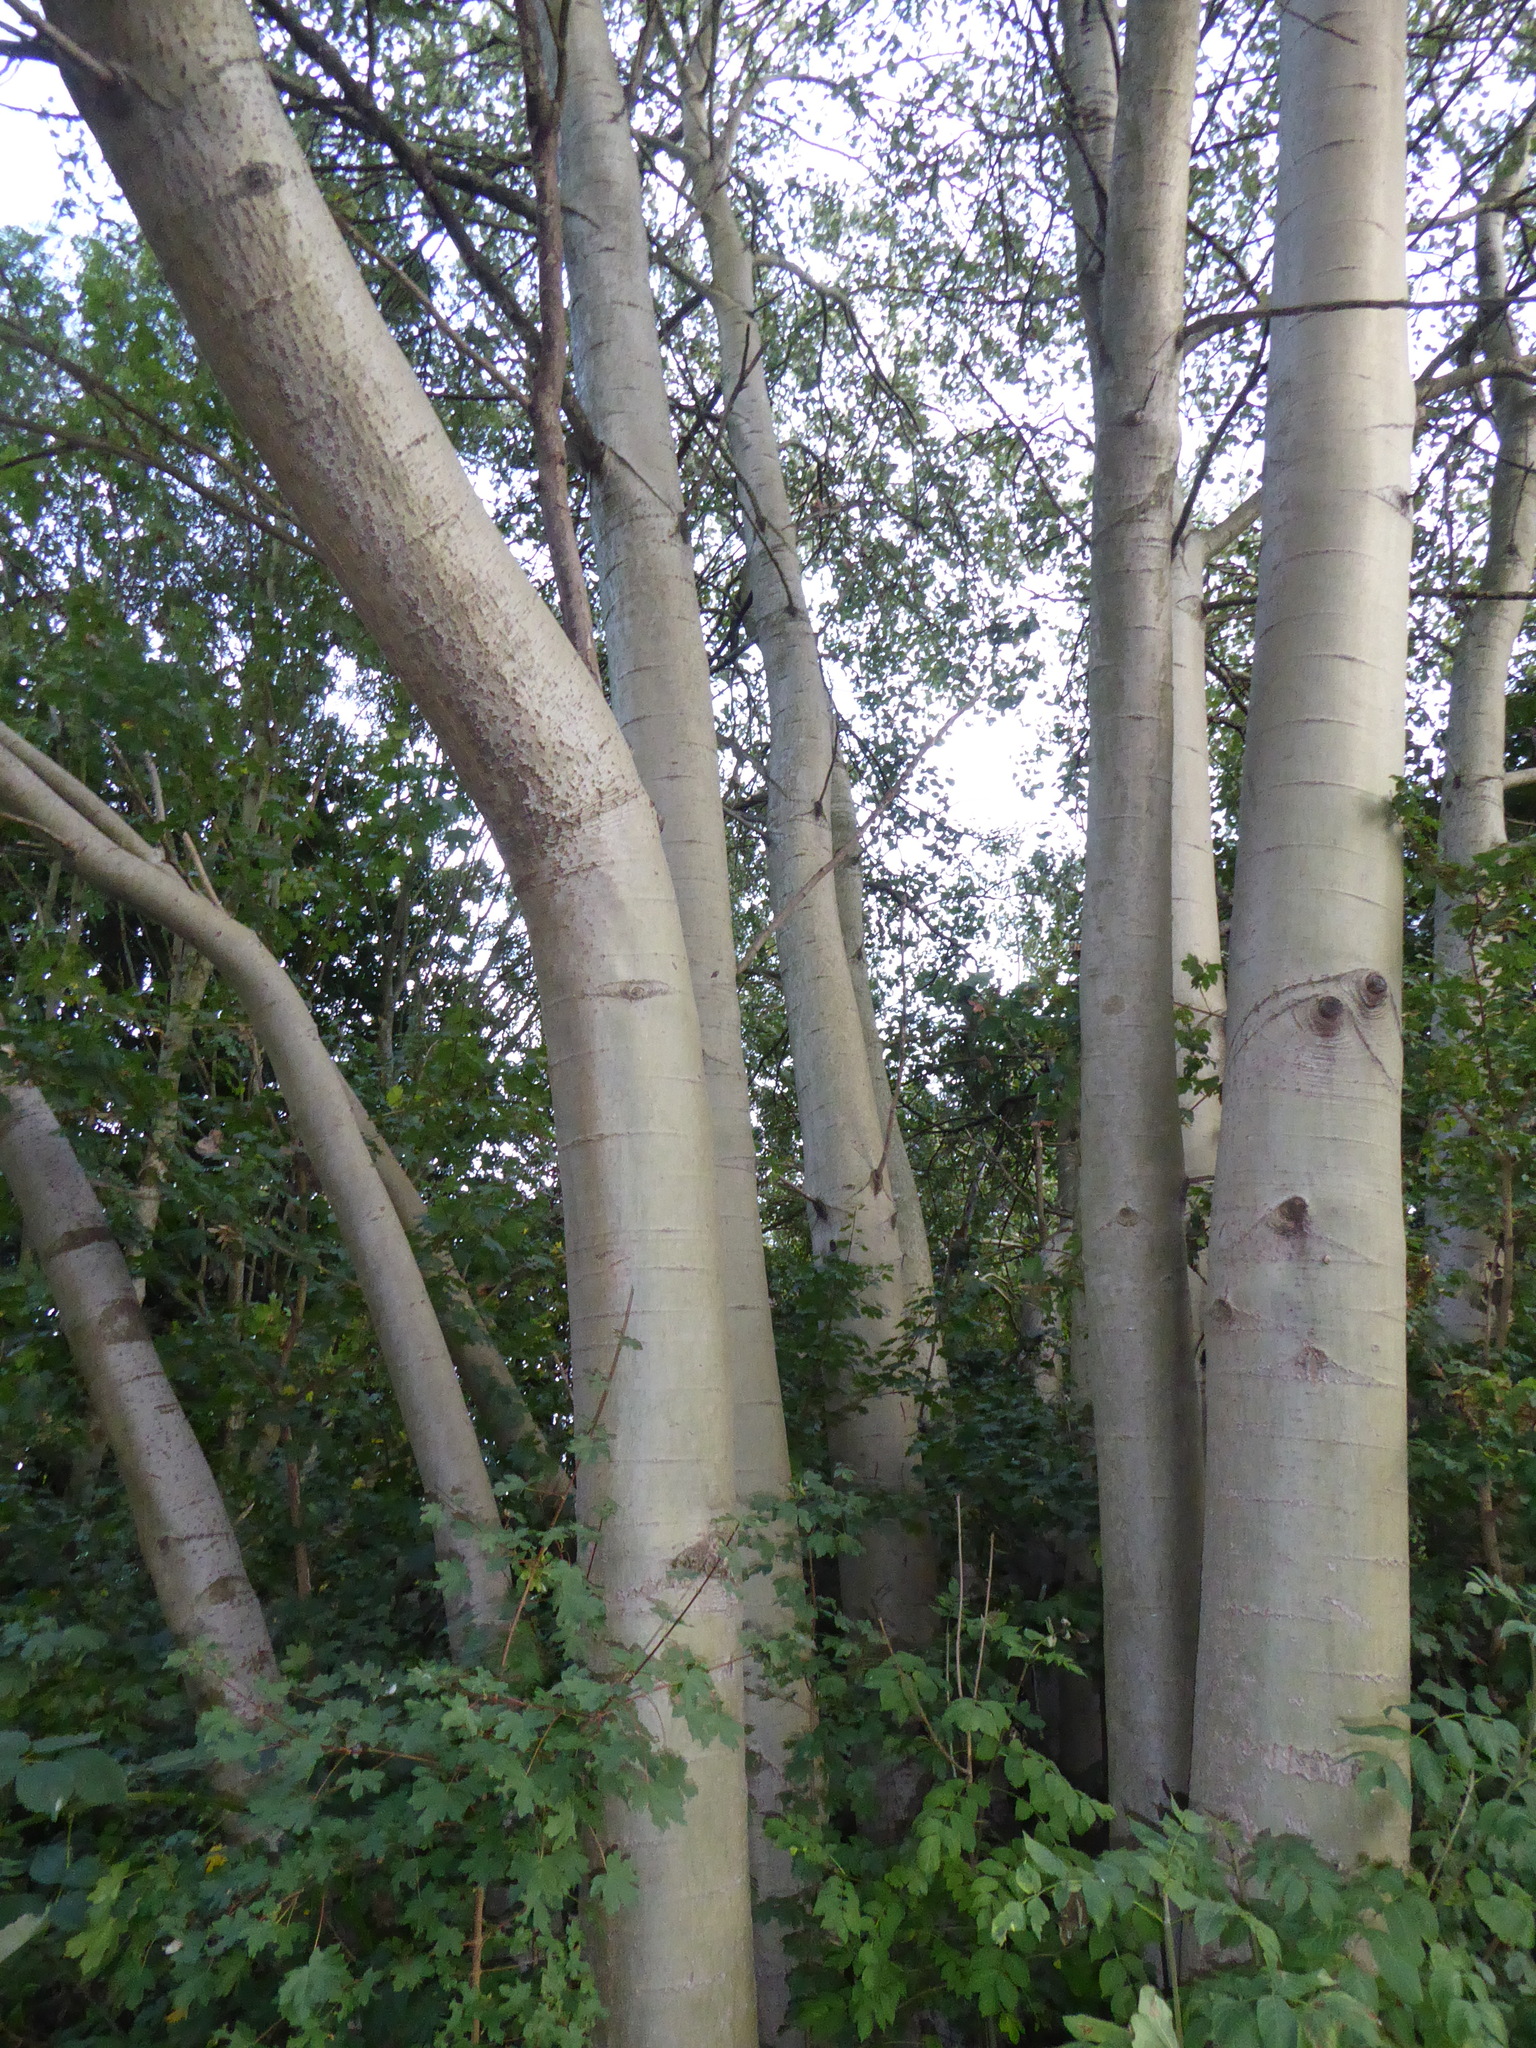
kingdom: Plantae
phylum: Tracheophyta
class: Magnoliopsida
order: Malpighiales
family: Salicaceae
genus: Populus
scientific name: Populus tremula
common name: European aspen
